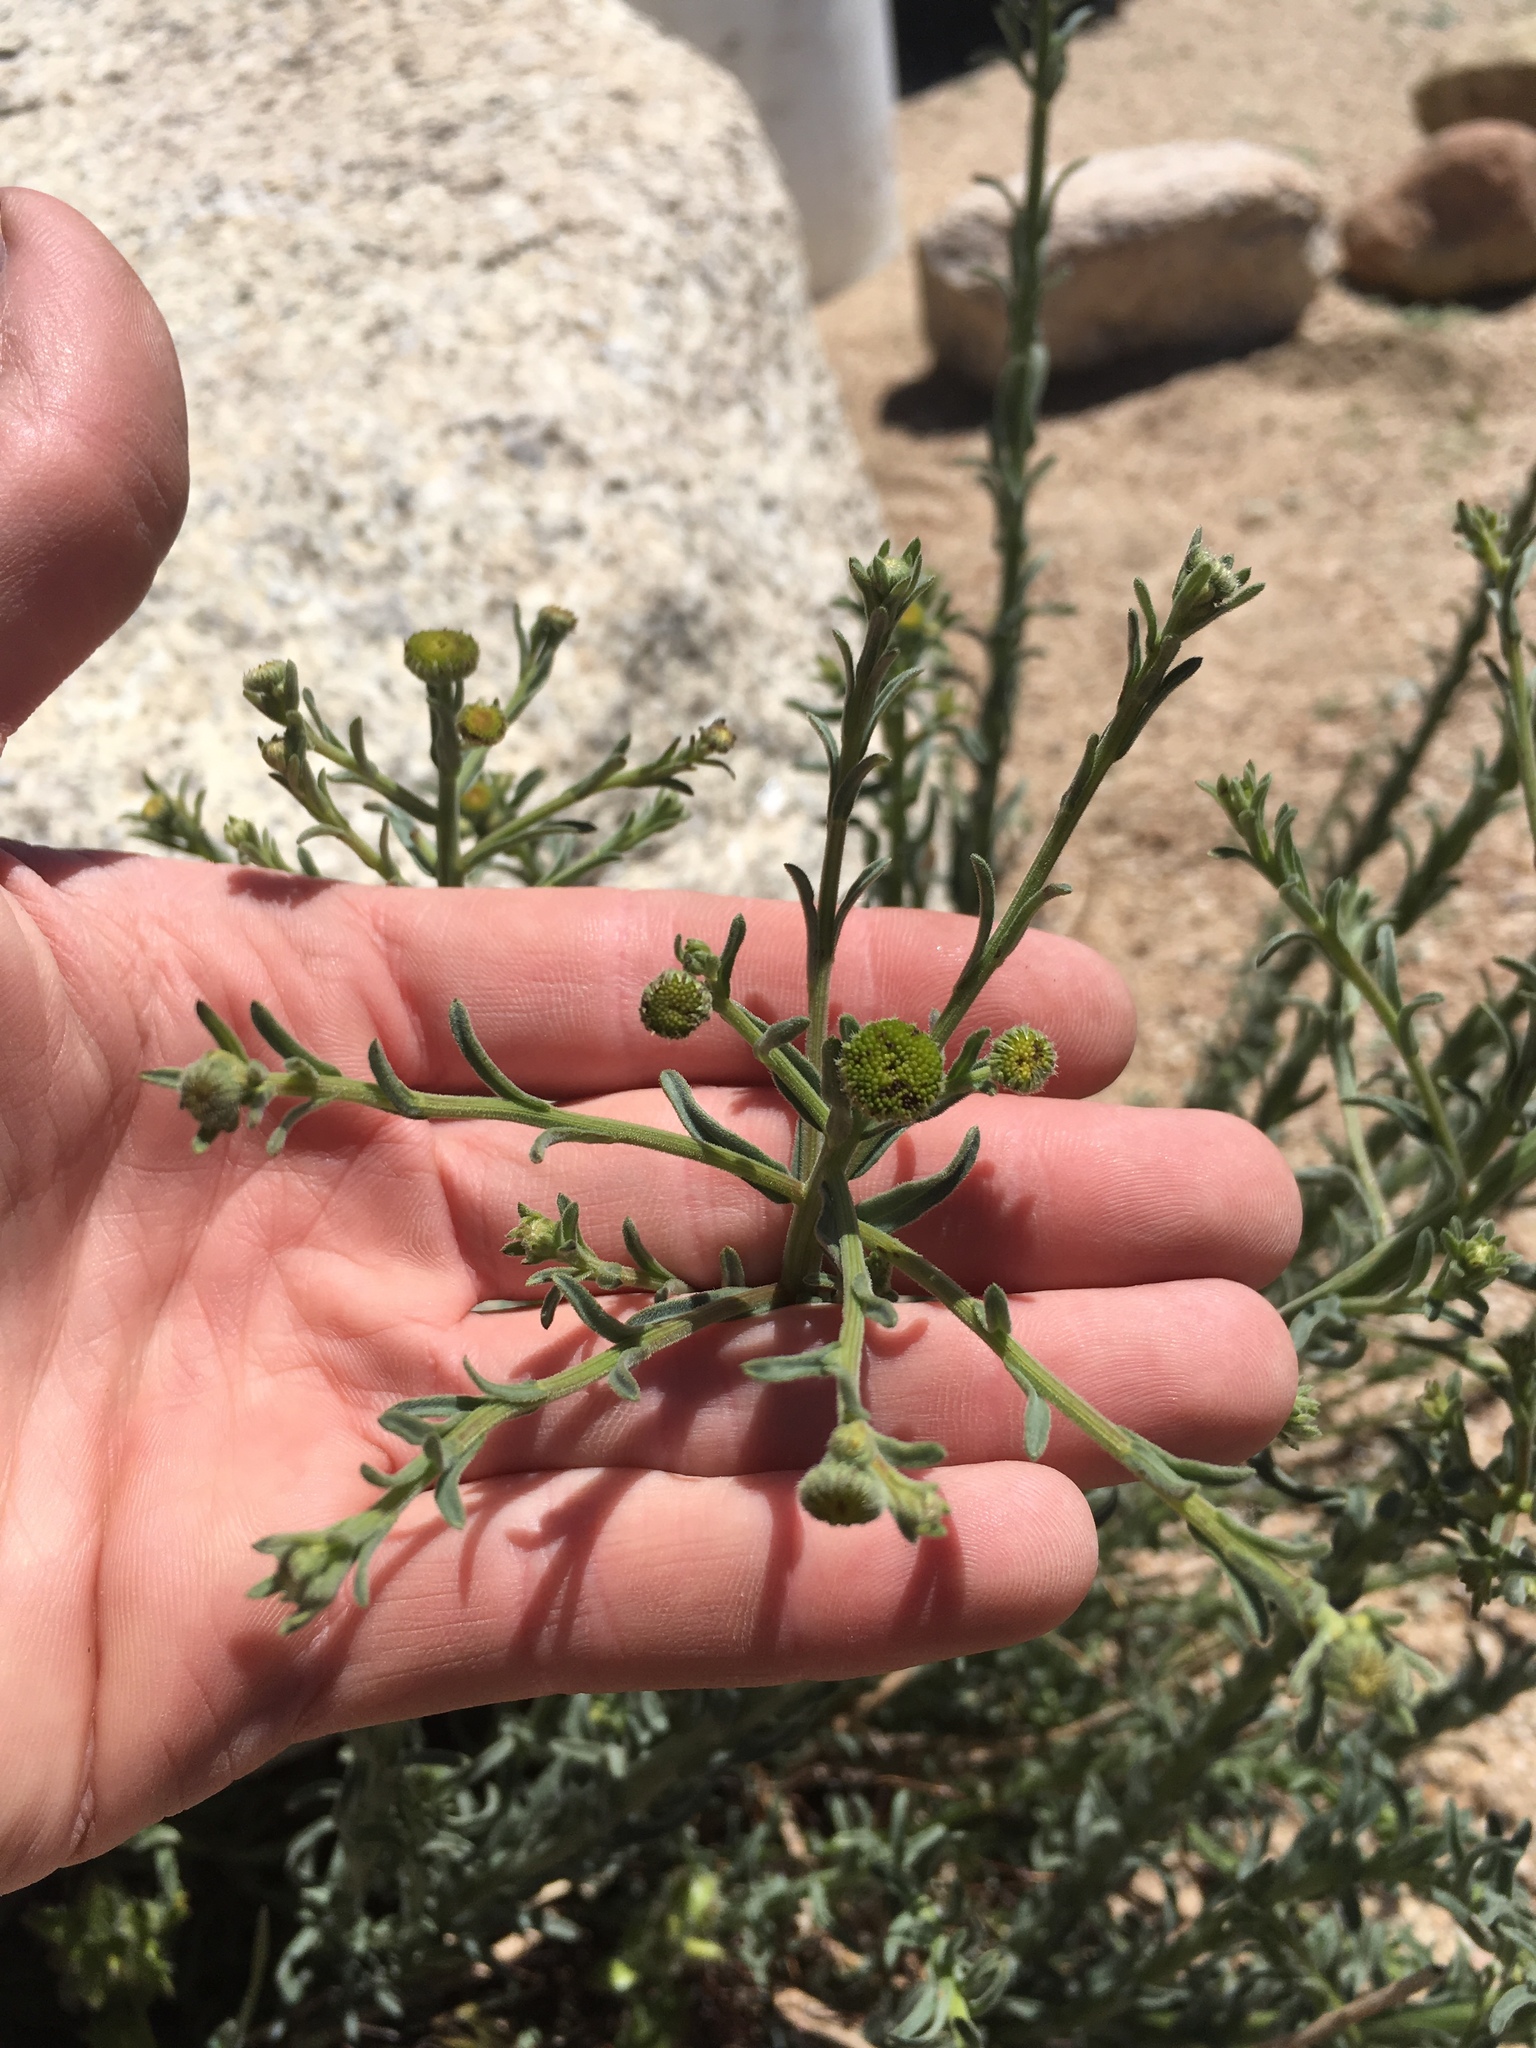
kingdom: Plantae
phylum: Tracheophyta
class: Magnoliopsida
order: Asterales
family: Asteraceae
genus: Erigeron
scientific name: Erigeron breweri
